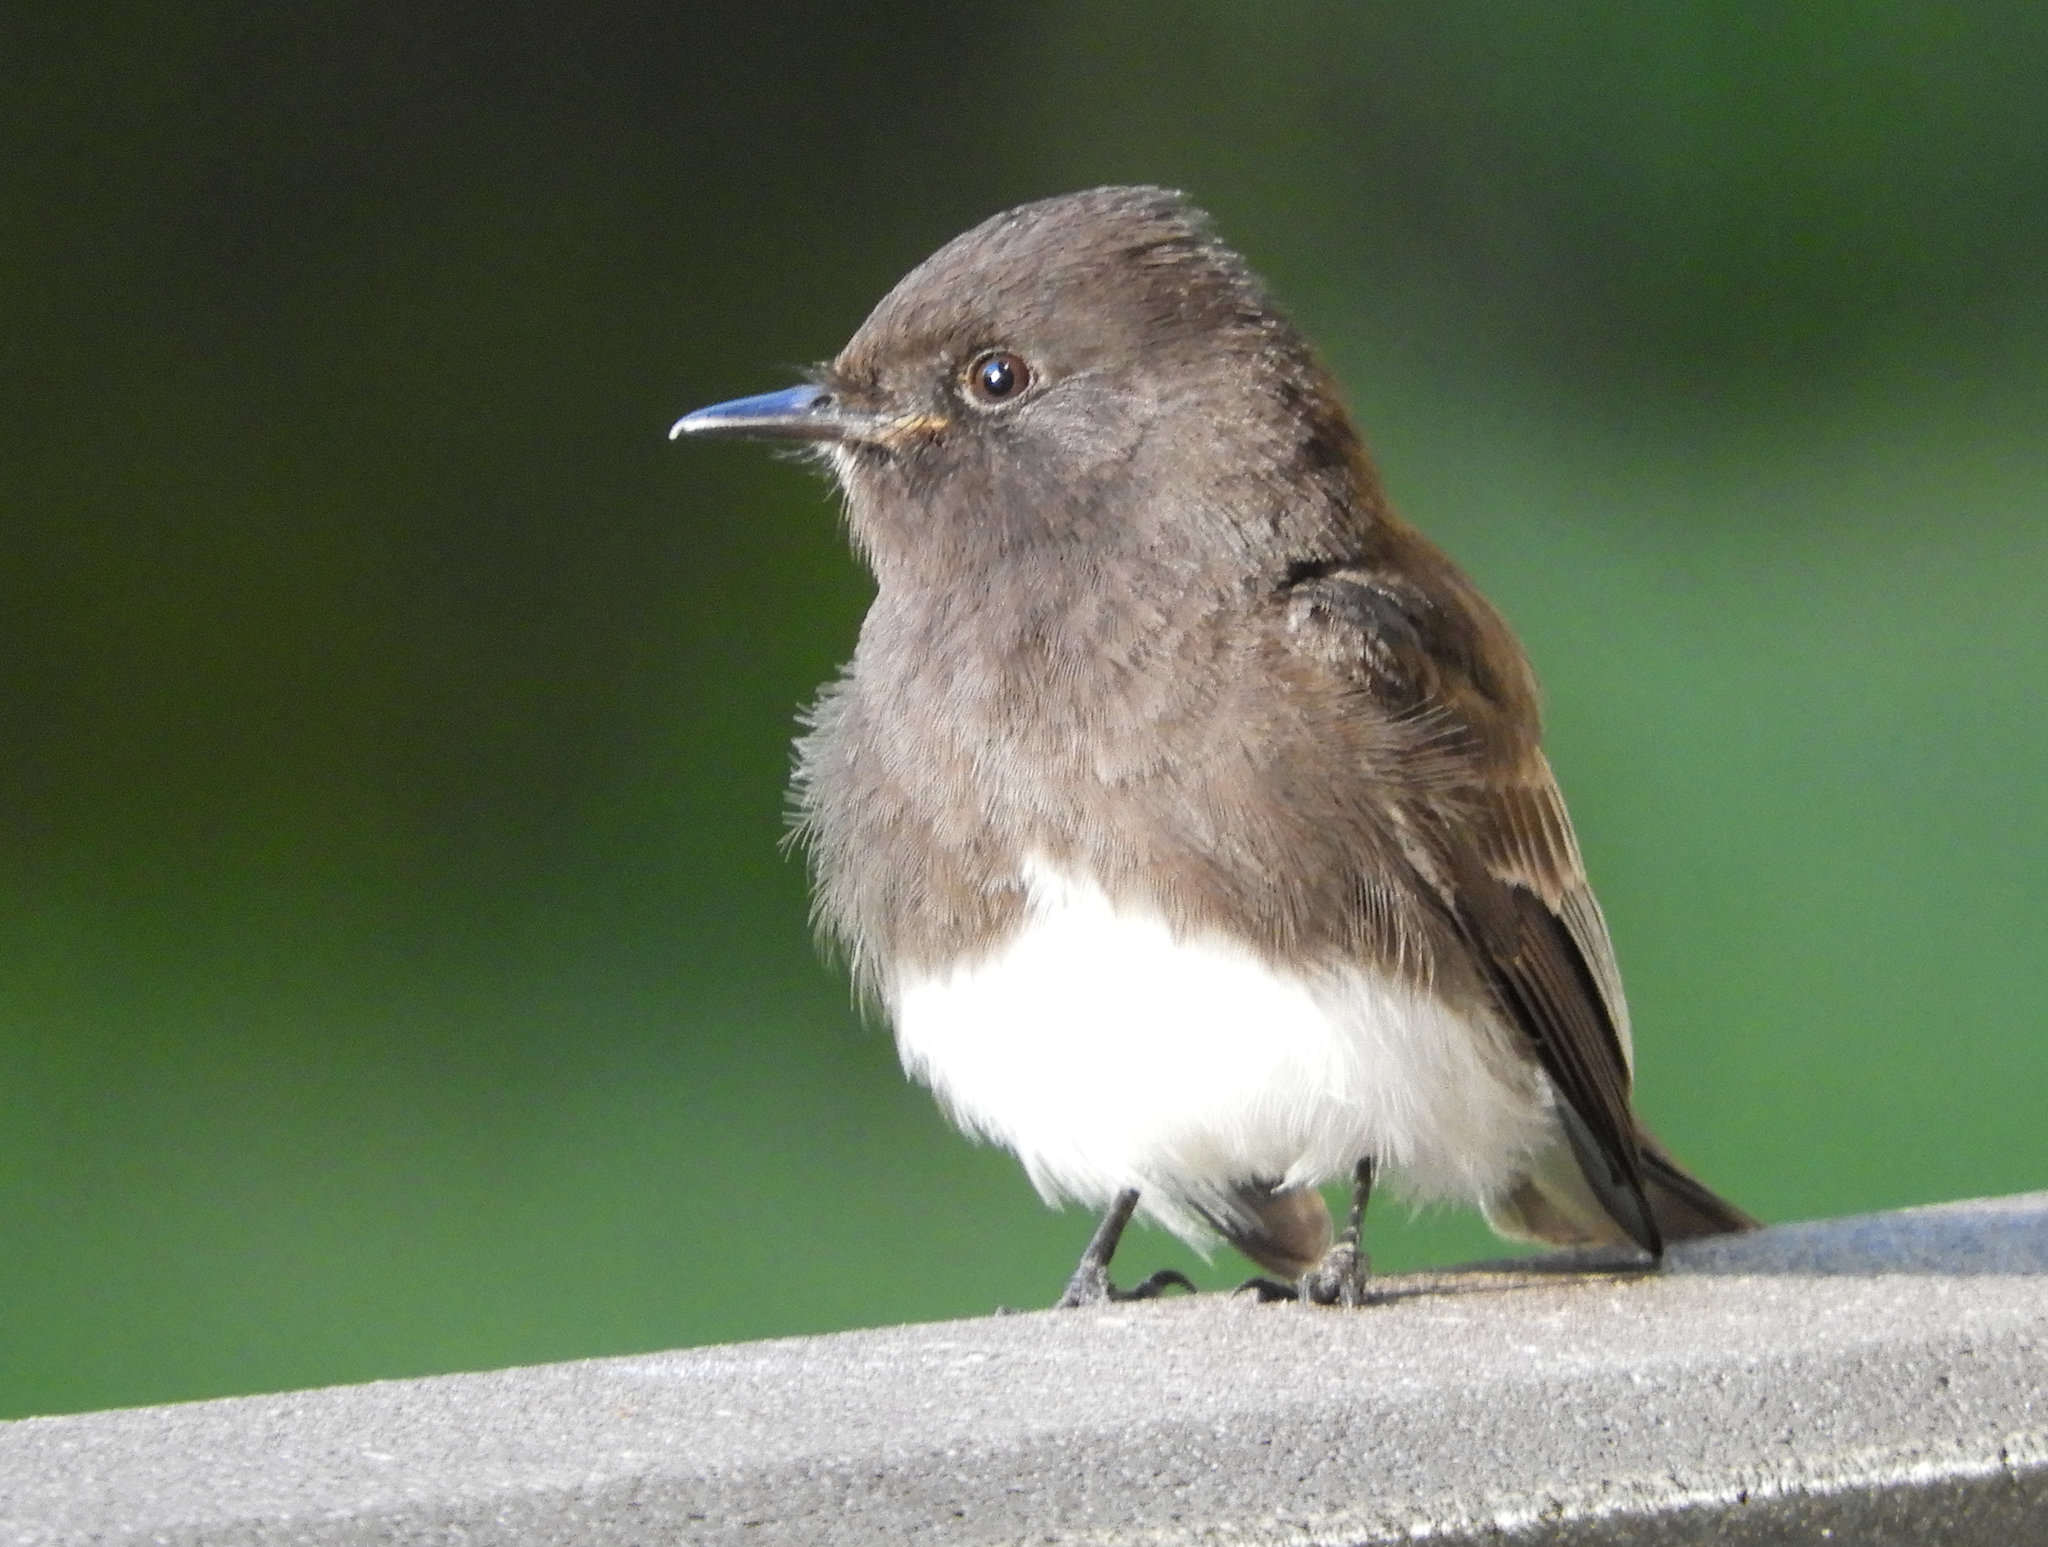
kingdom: Animalia
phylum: Chordata
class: Aves
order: Passeriformes
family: Tyrannidae
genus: Sayornis
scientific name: Sayornis nigricans
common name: Black phoebe
